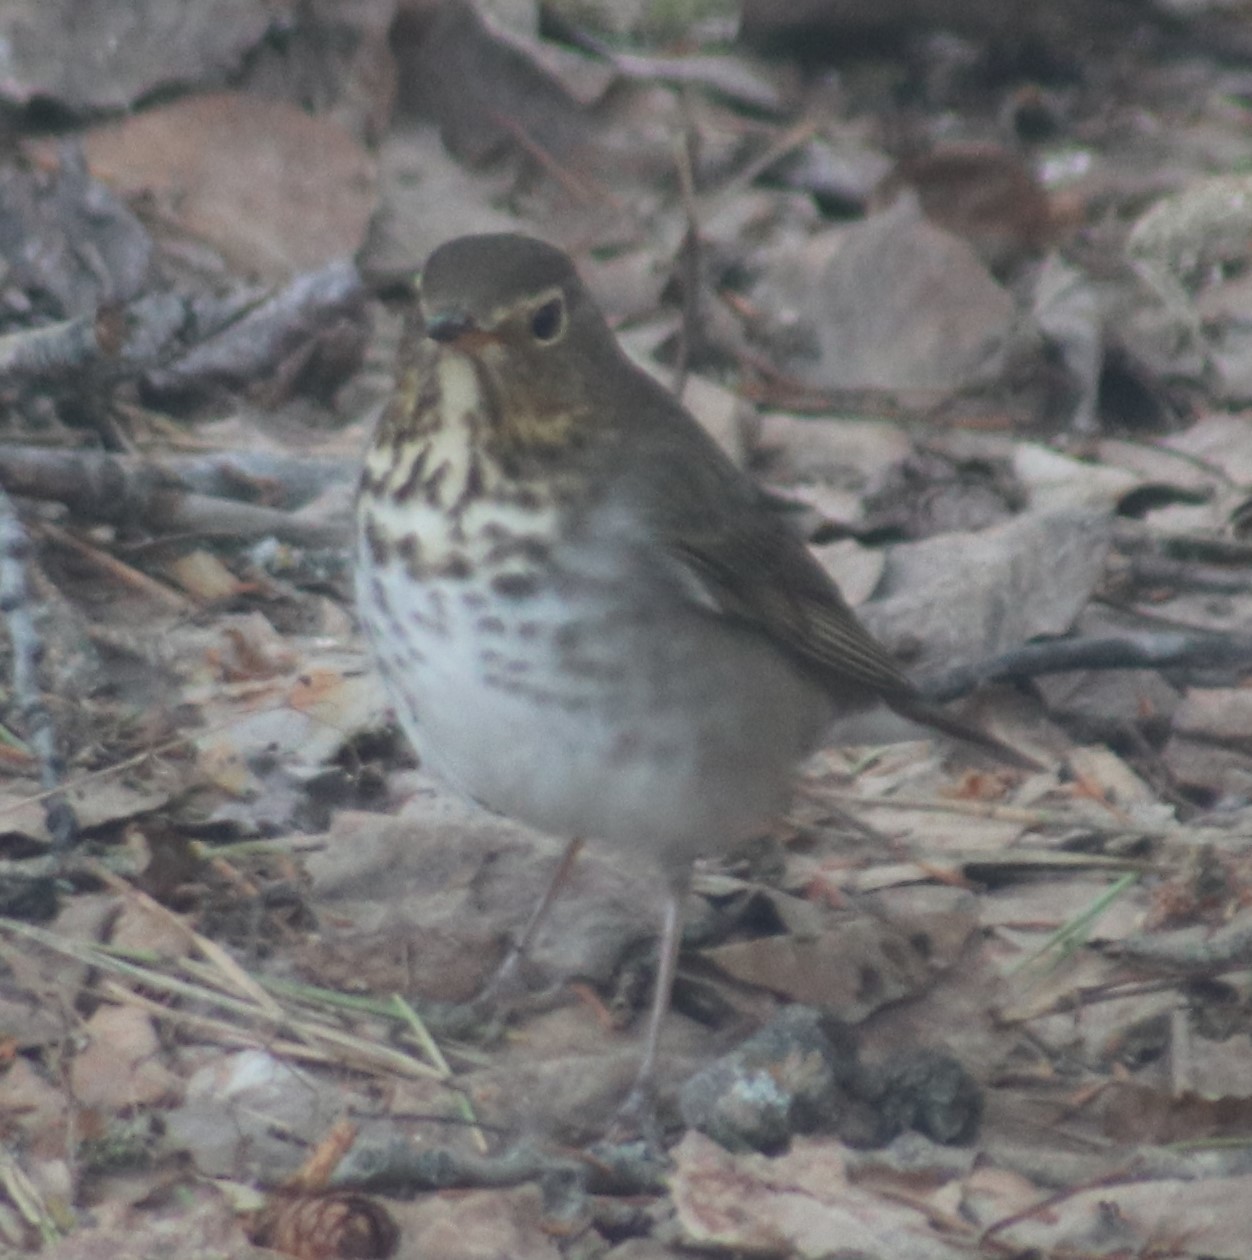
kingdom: Animalia
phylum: Chordata
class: Aves
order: Passeriformes
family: Turdidae
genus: Catharus
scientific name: Catharus ustulatus
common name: Swainson's thrush
